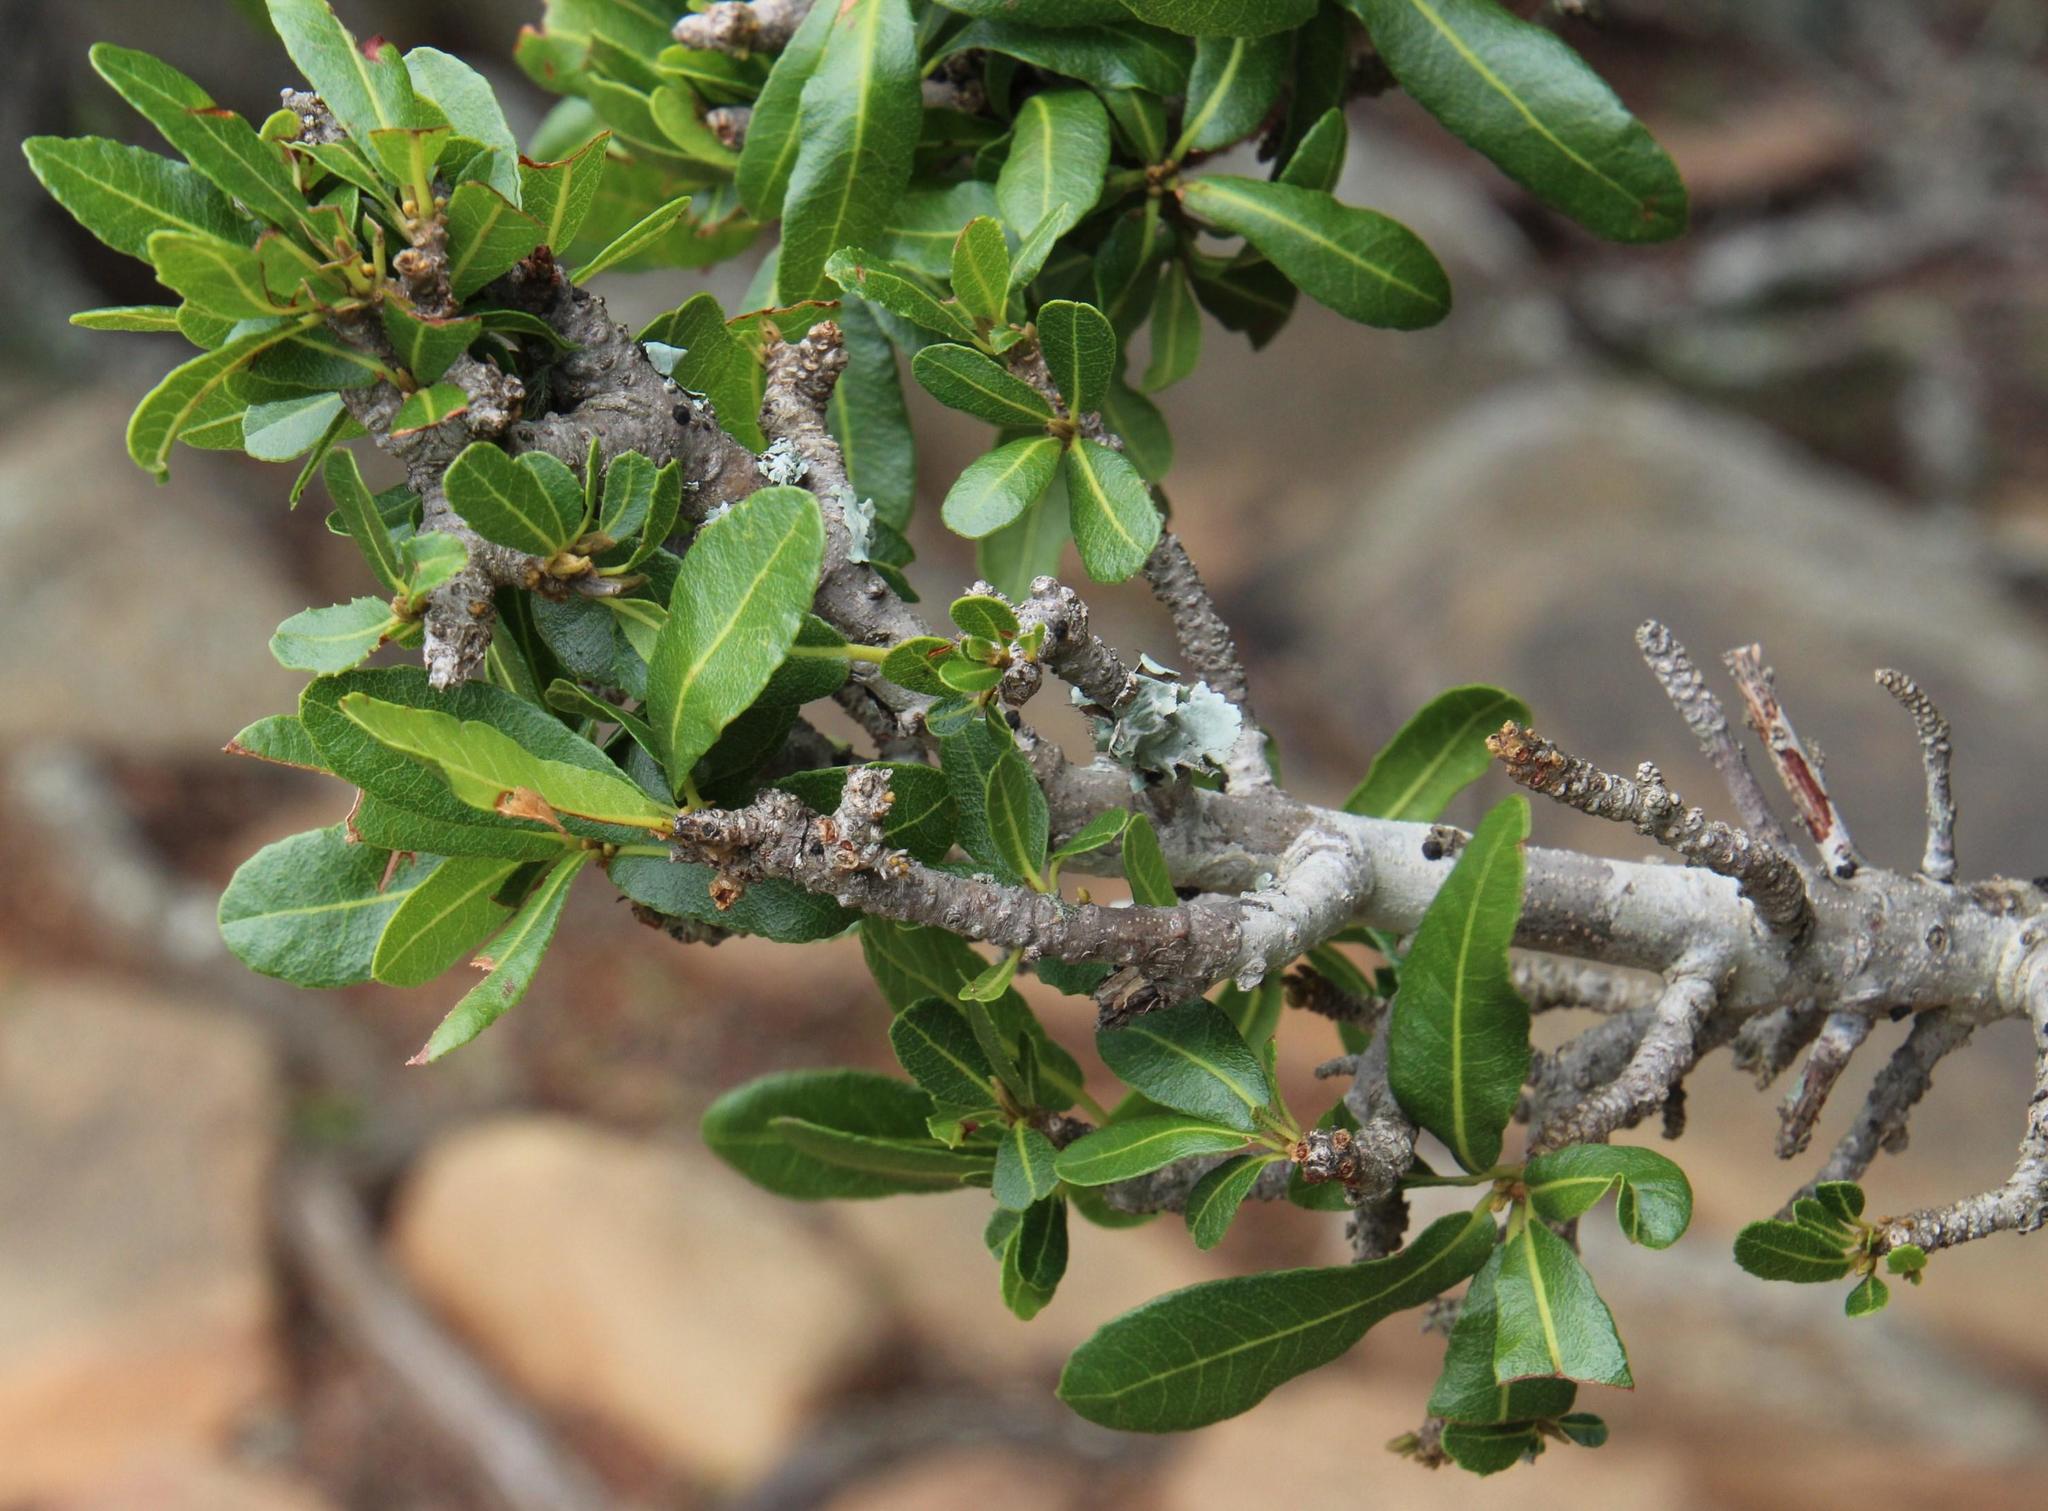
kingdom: Plantae
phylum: Tracheophyta
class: Magnoliopsida
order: Sapindales
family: Sapindaceae
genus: Pappea
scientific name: Pappea capensis
